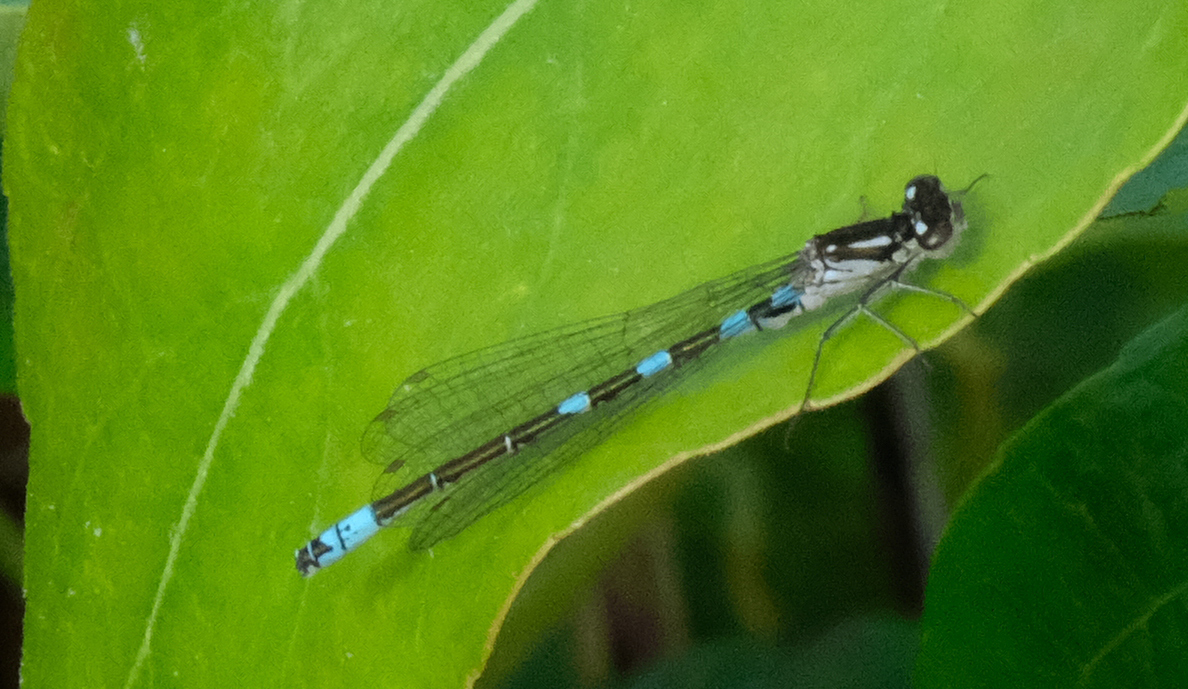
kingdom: Animalia
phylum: Arthropoda
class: Insecta
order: Odonata
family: Coenagrionidae
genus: Coenagrion
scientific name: Coenagrion resolutum
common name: Taiga bluet
